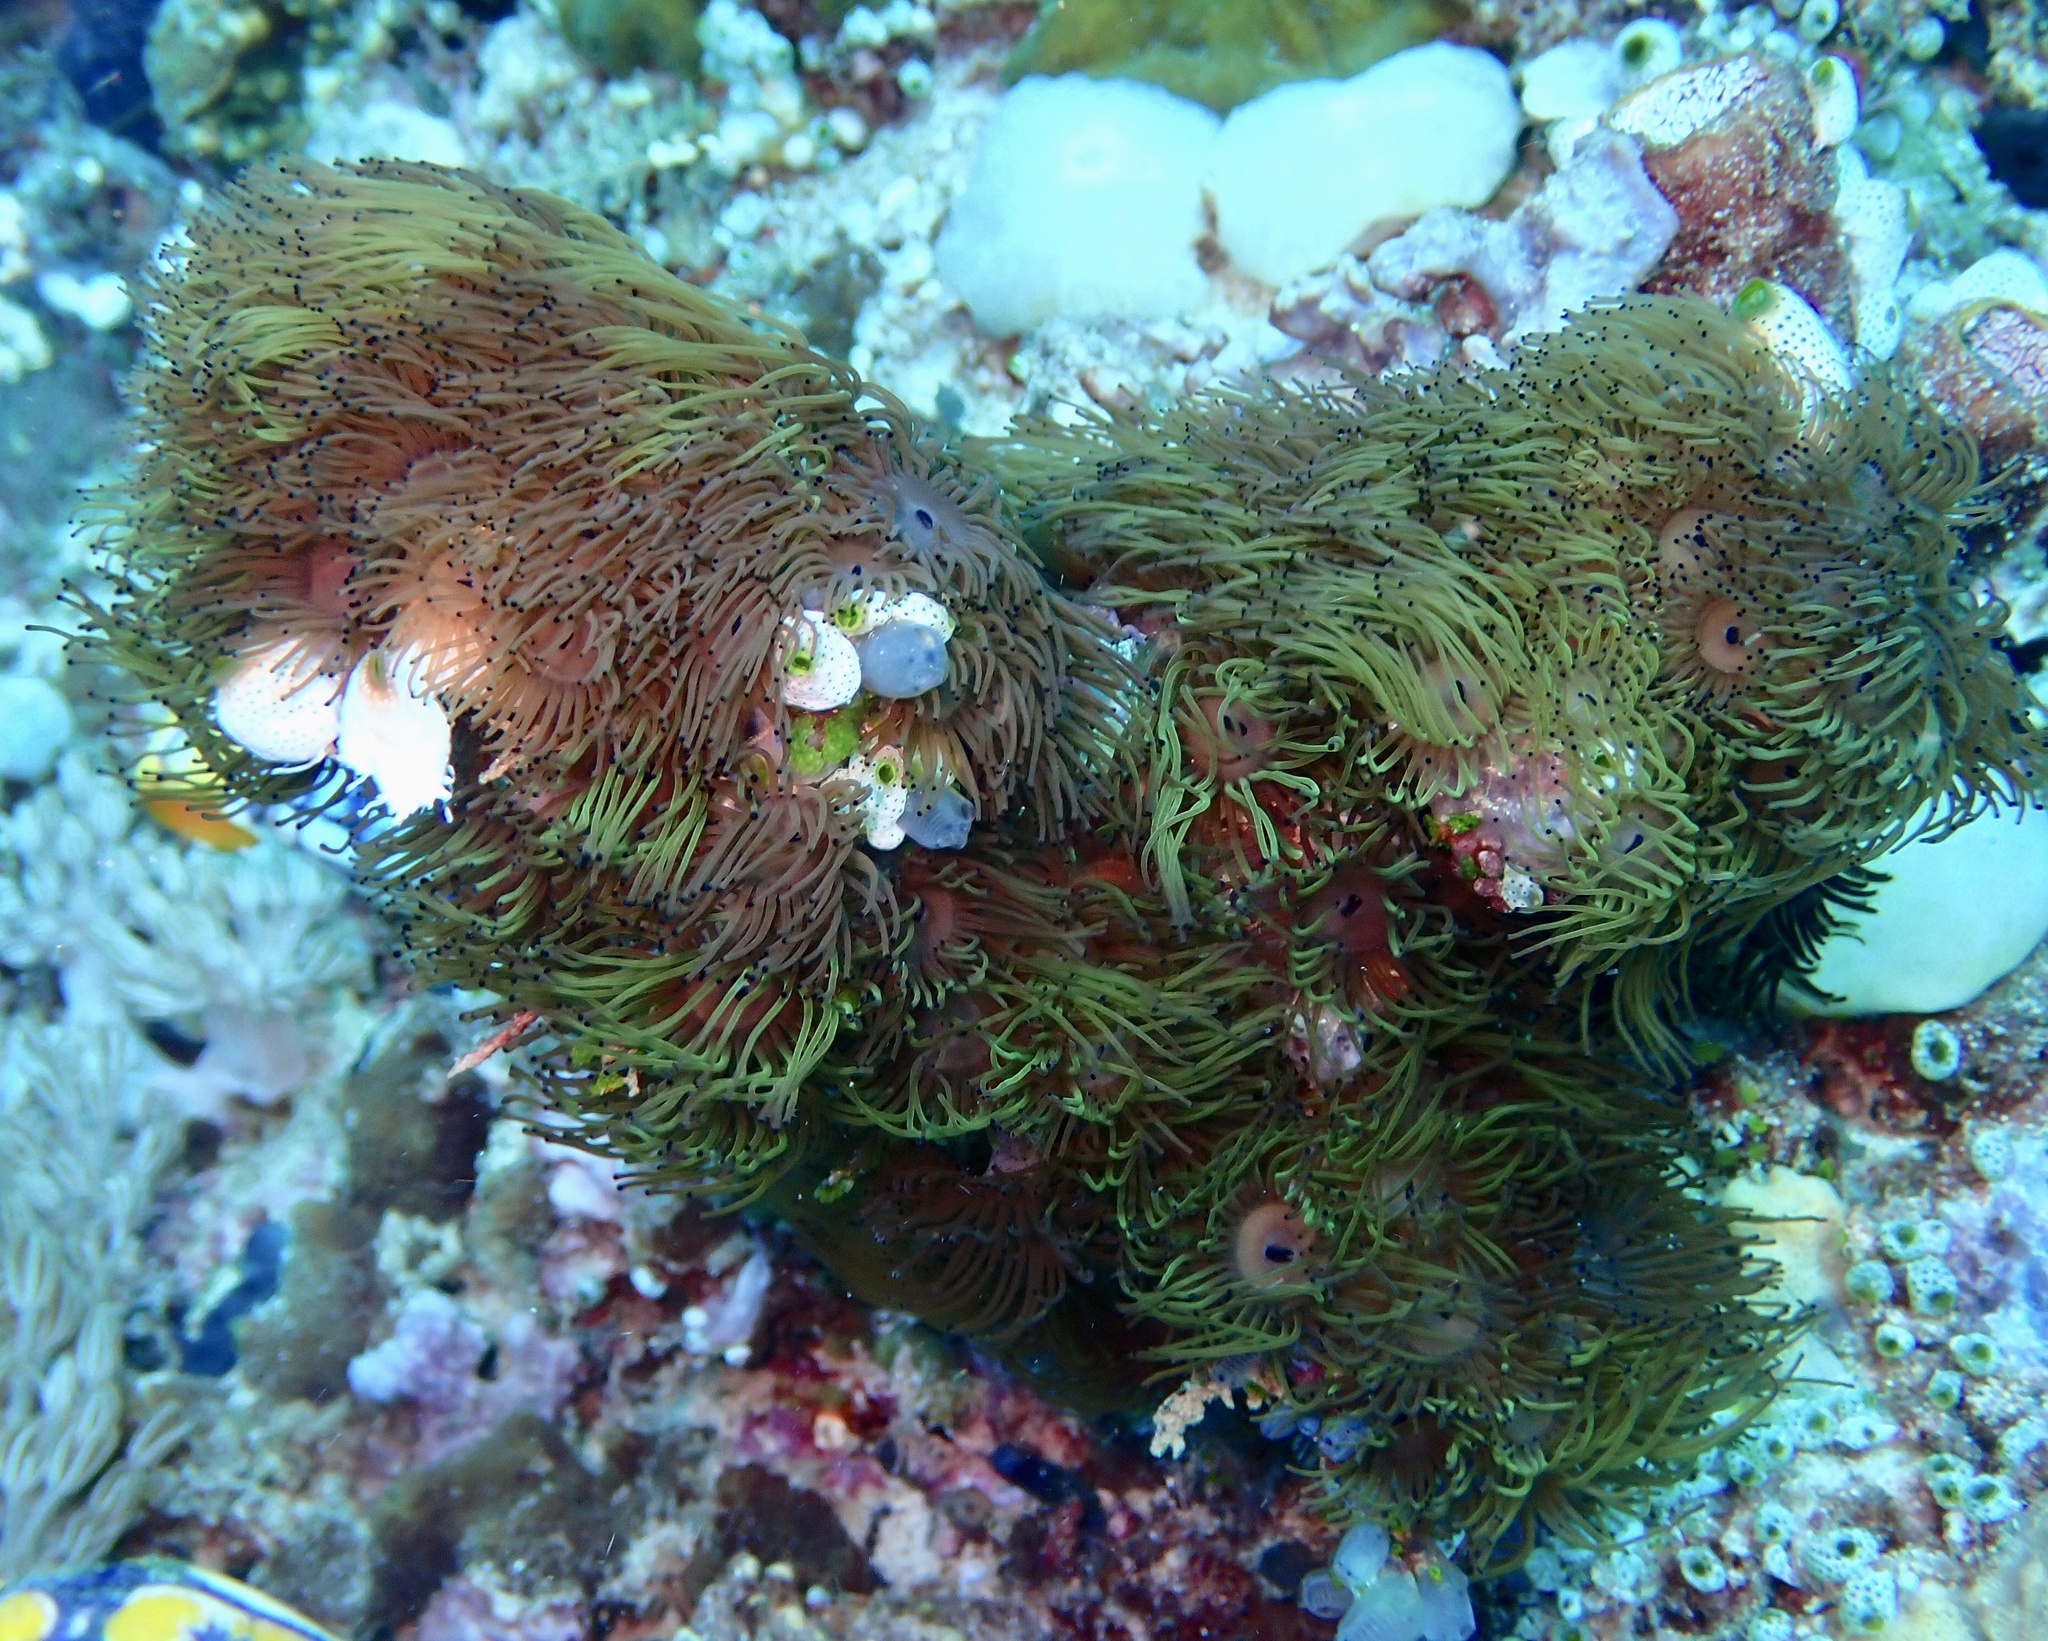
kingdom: Animalia
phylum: Cnidaria
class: Anthozoa
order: Zoantharia
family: Zoanthidae
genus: Acrozoanthus
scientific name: Acrozoanthus australiae
